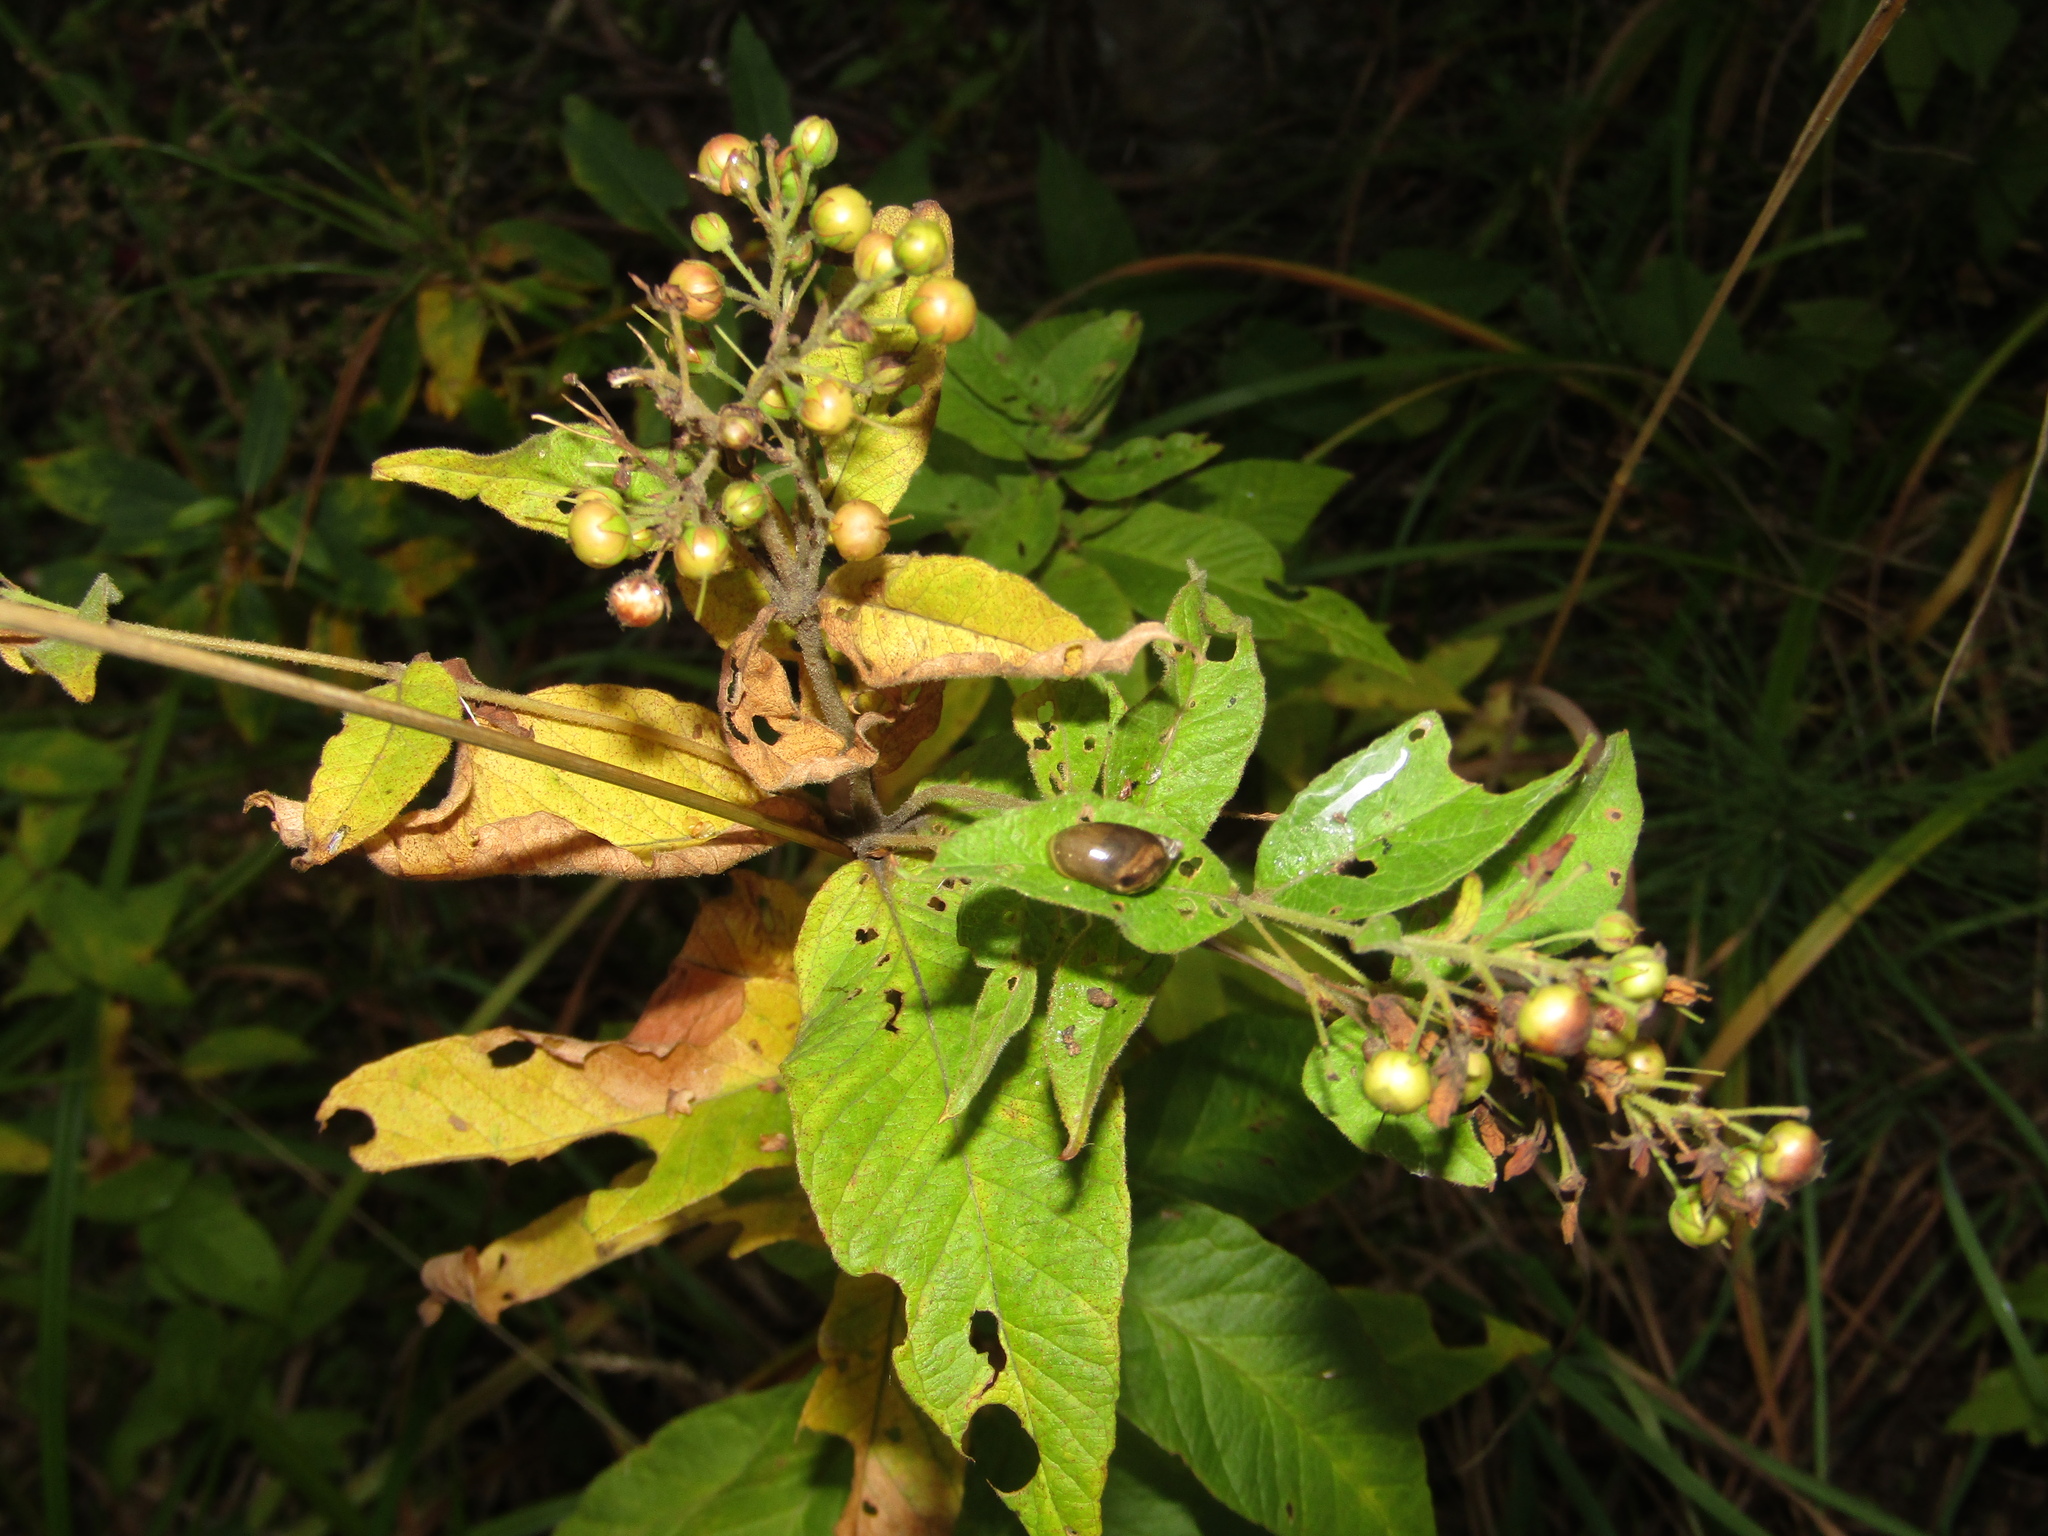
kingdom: Plantae
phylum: Tracheophyta
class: Magnoliopsida
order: Ericales
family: Primulaceae
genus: Lysimachia
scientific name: Lysimachia vulgaris
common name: Yellow loosestrife
